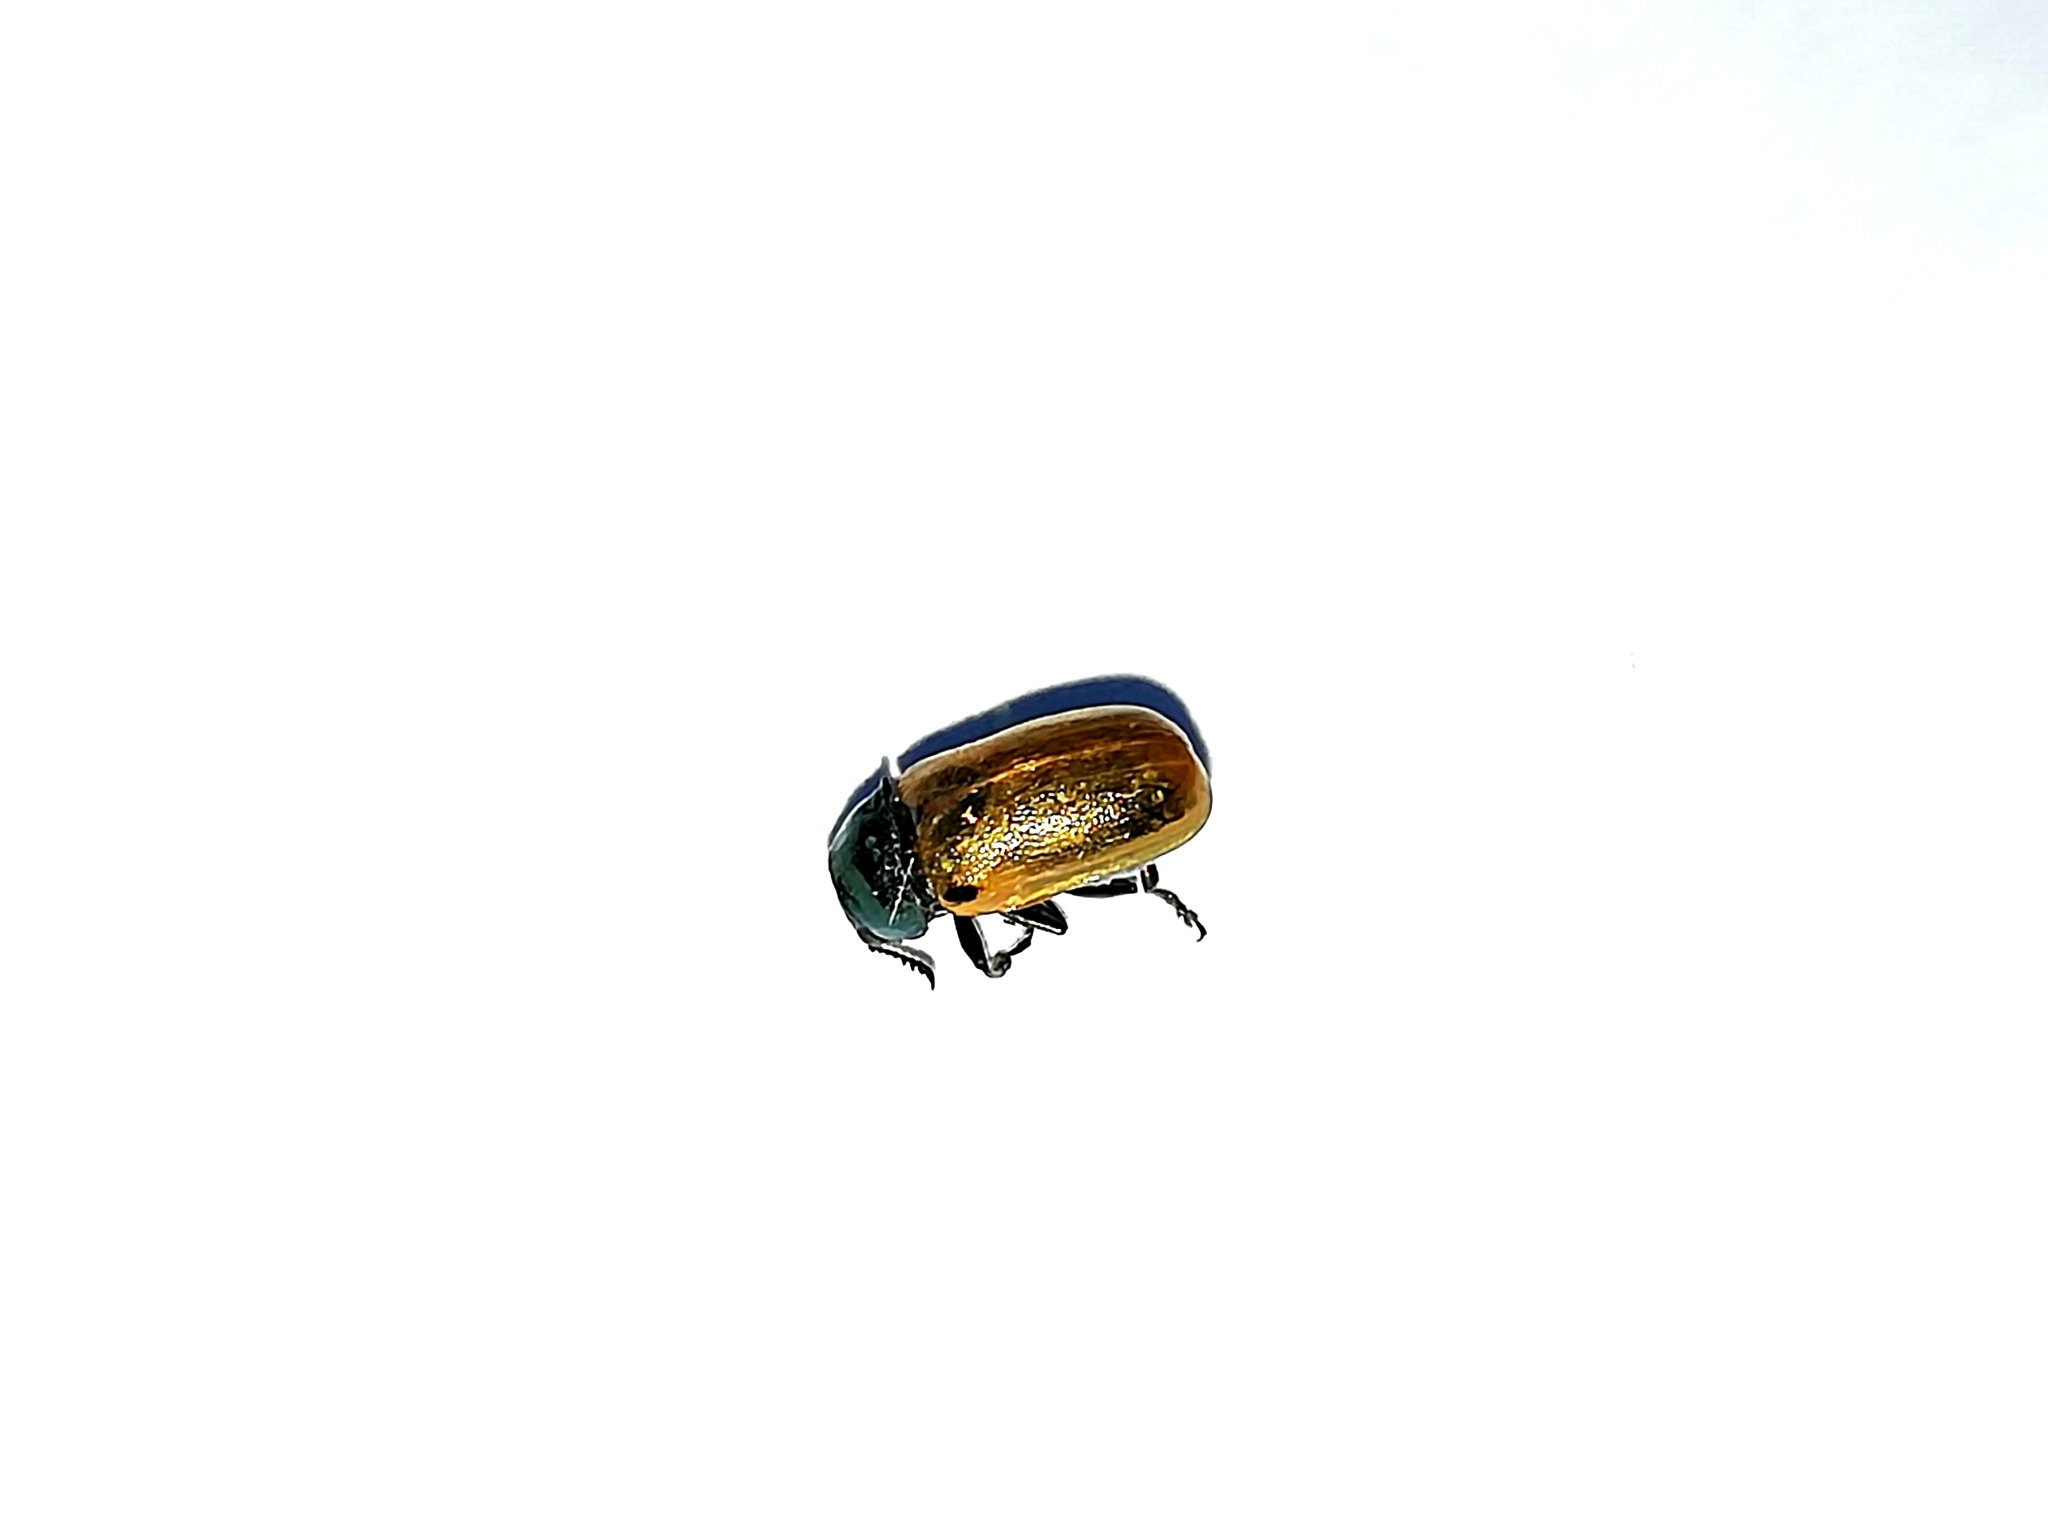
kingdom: Animalia
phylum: Arthropoda
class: Insecta
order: Coleoptera
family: Chrysomelidae
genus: Labidostomis
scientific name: Labidostomis longimana
